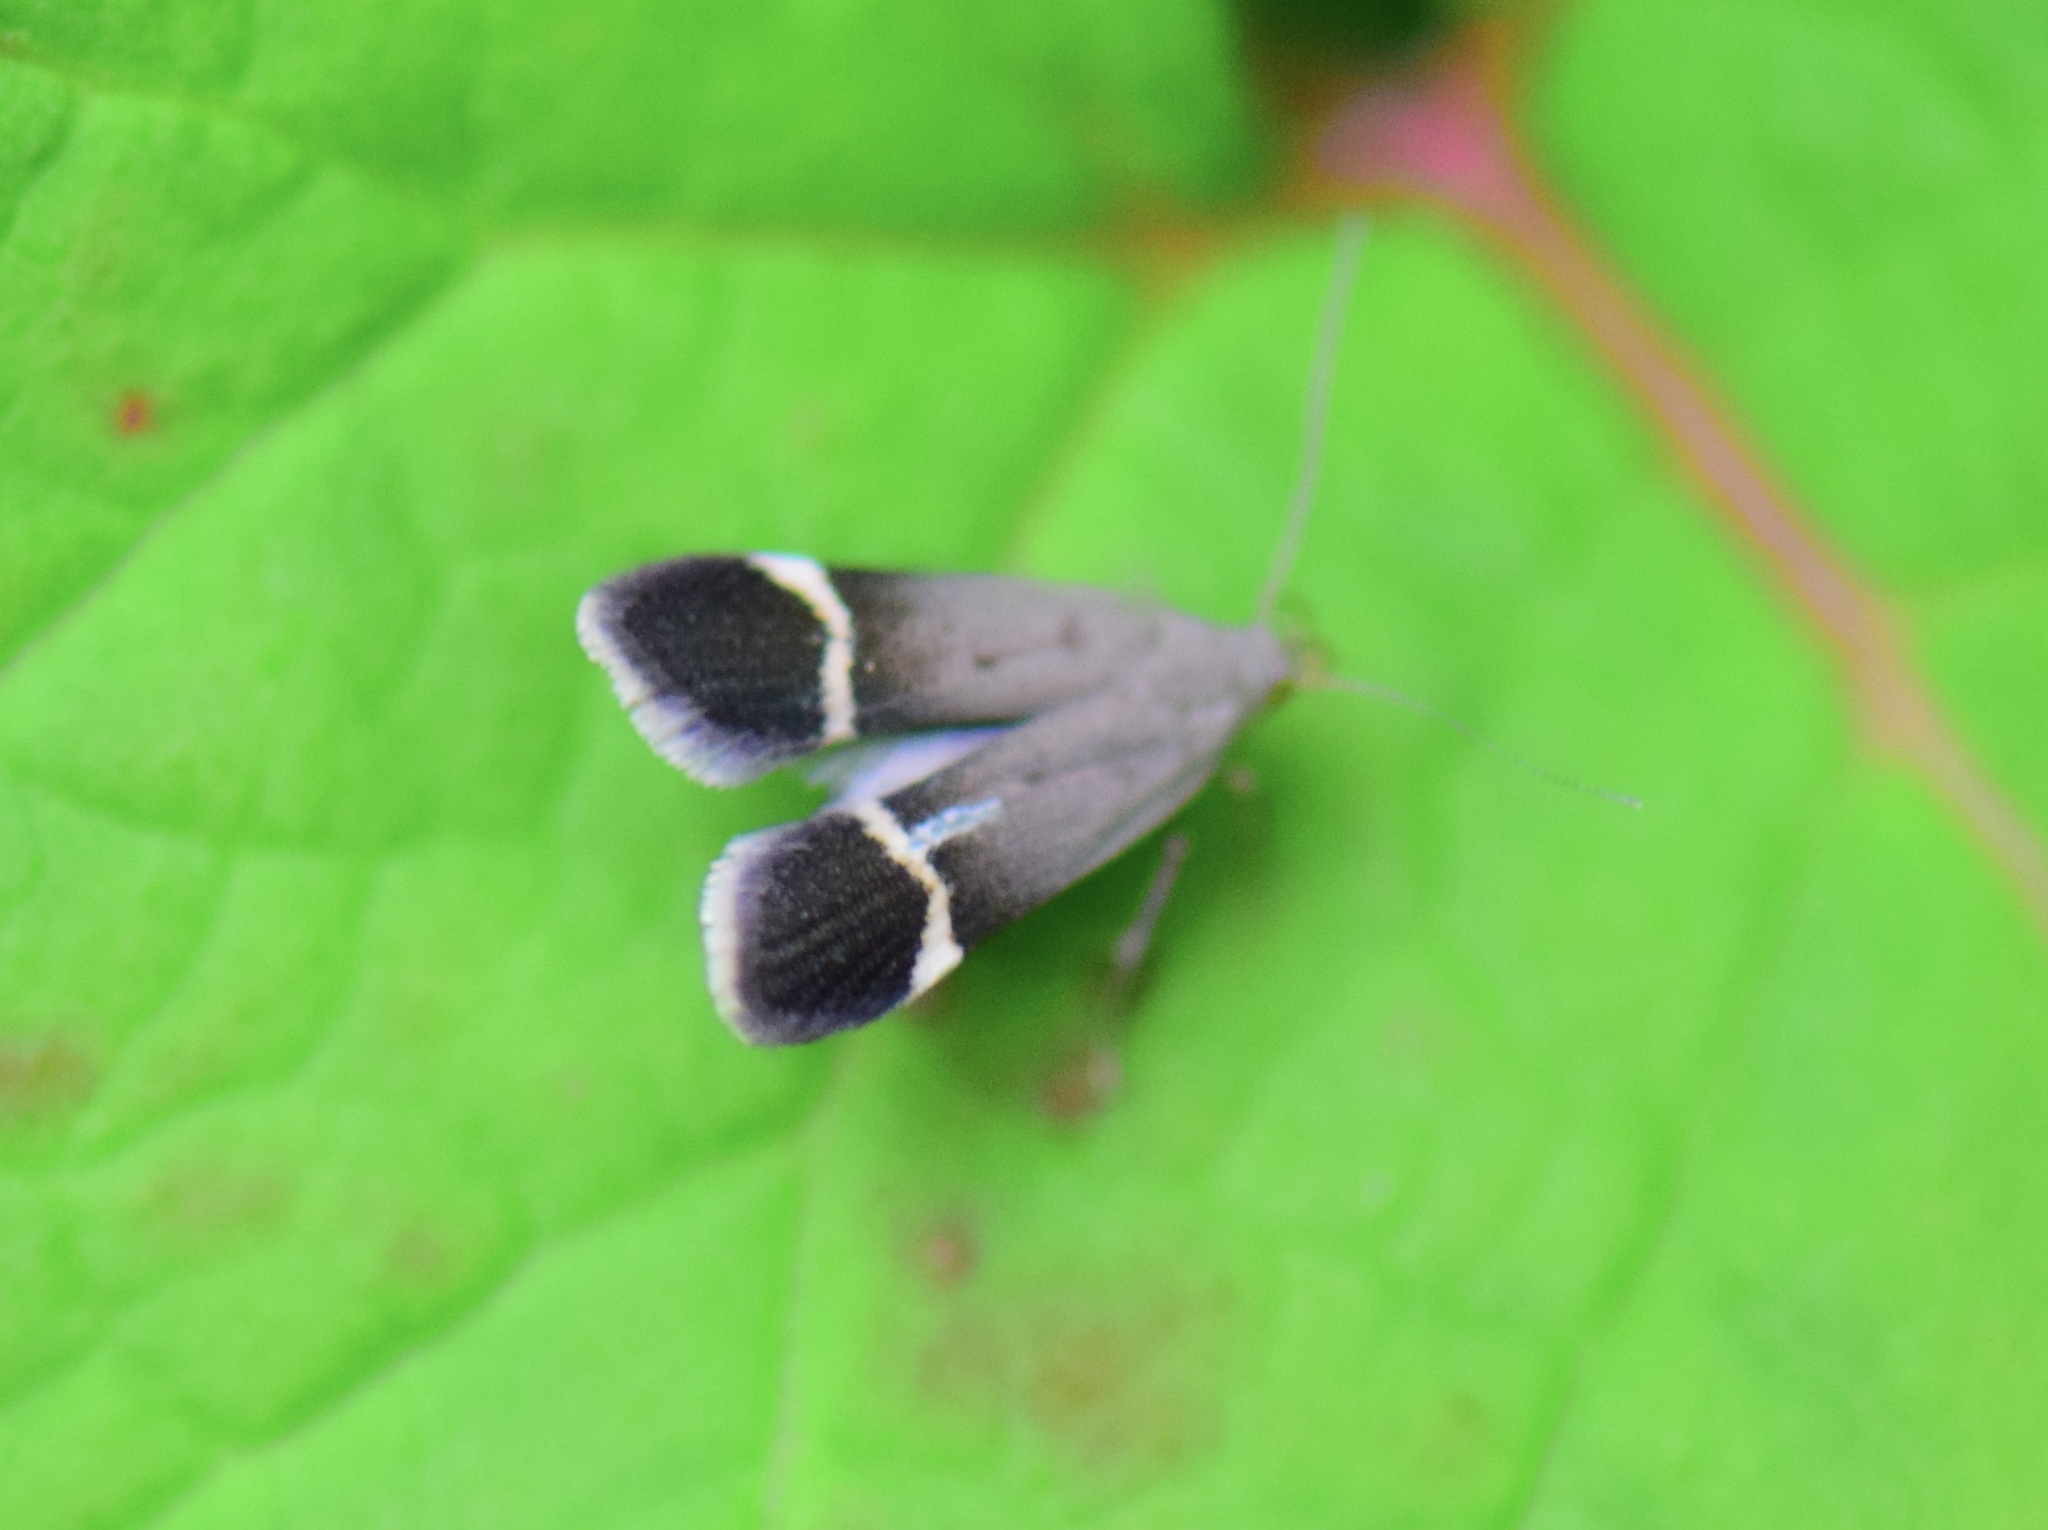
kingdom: Animalia
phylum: Arthropoda
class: Insecta
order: Lepidoptera
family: Gelechiidae
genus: Anacampsis
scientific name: Anacampsis agrimoniella
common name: Agrimony anacampsis moth
